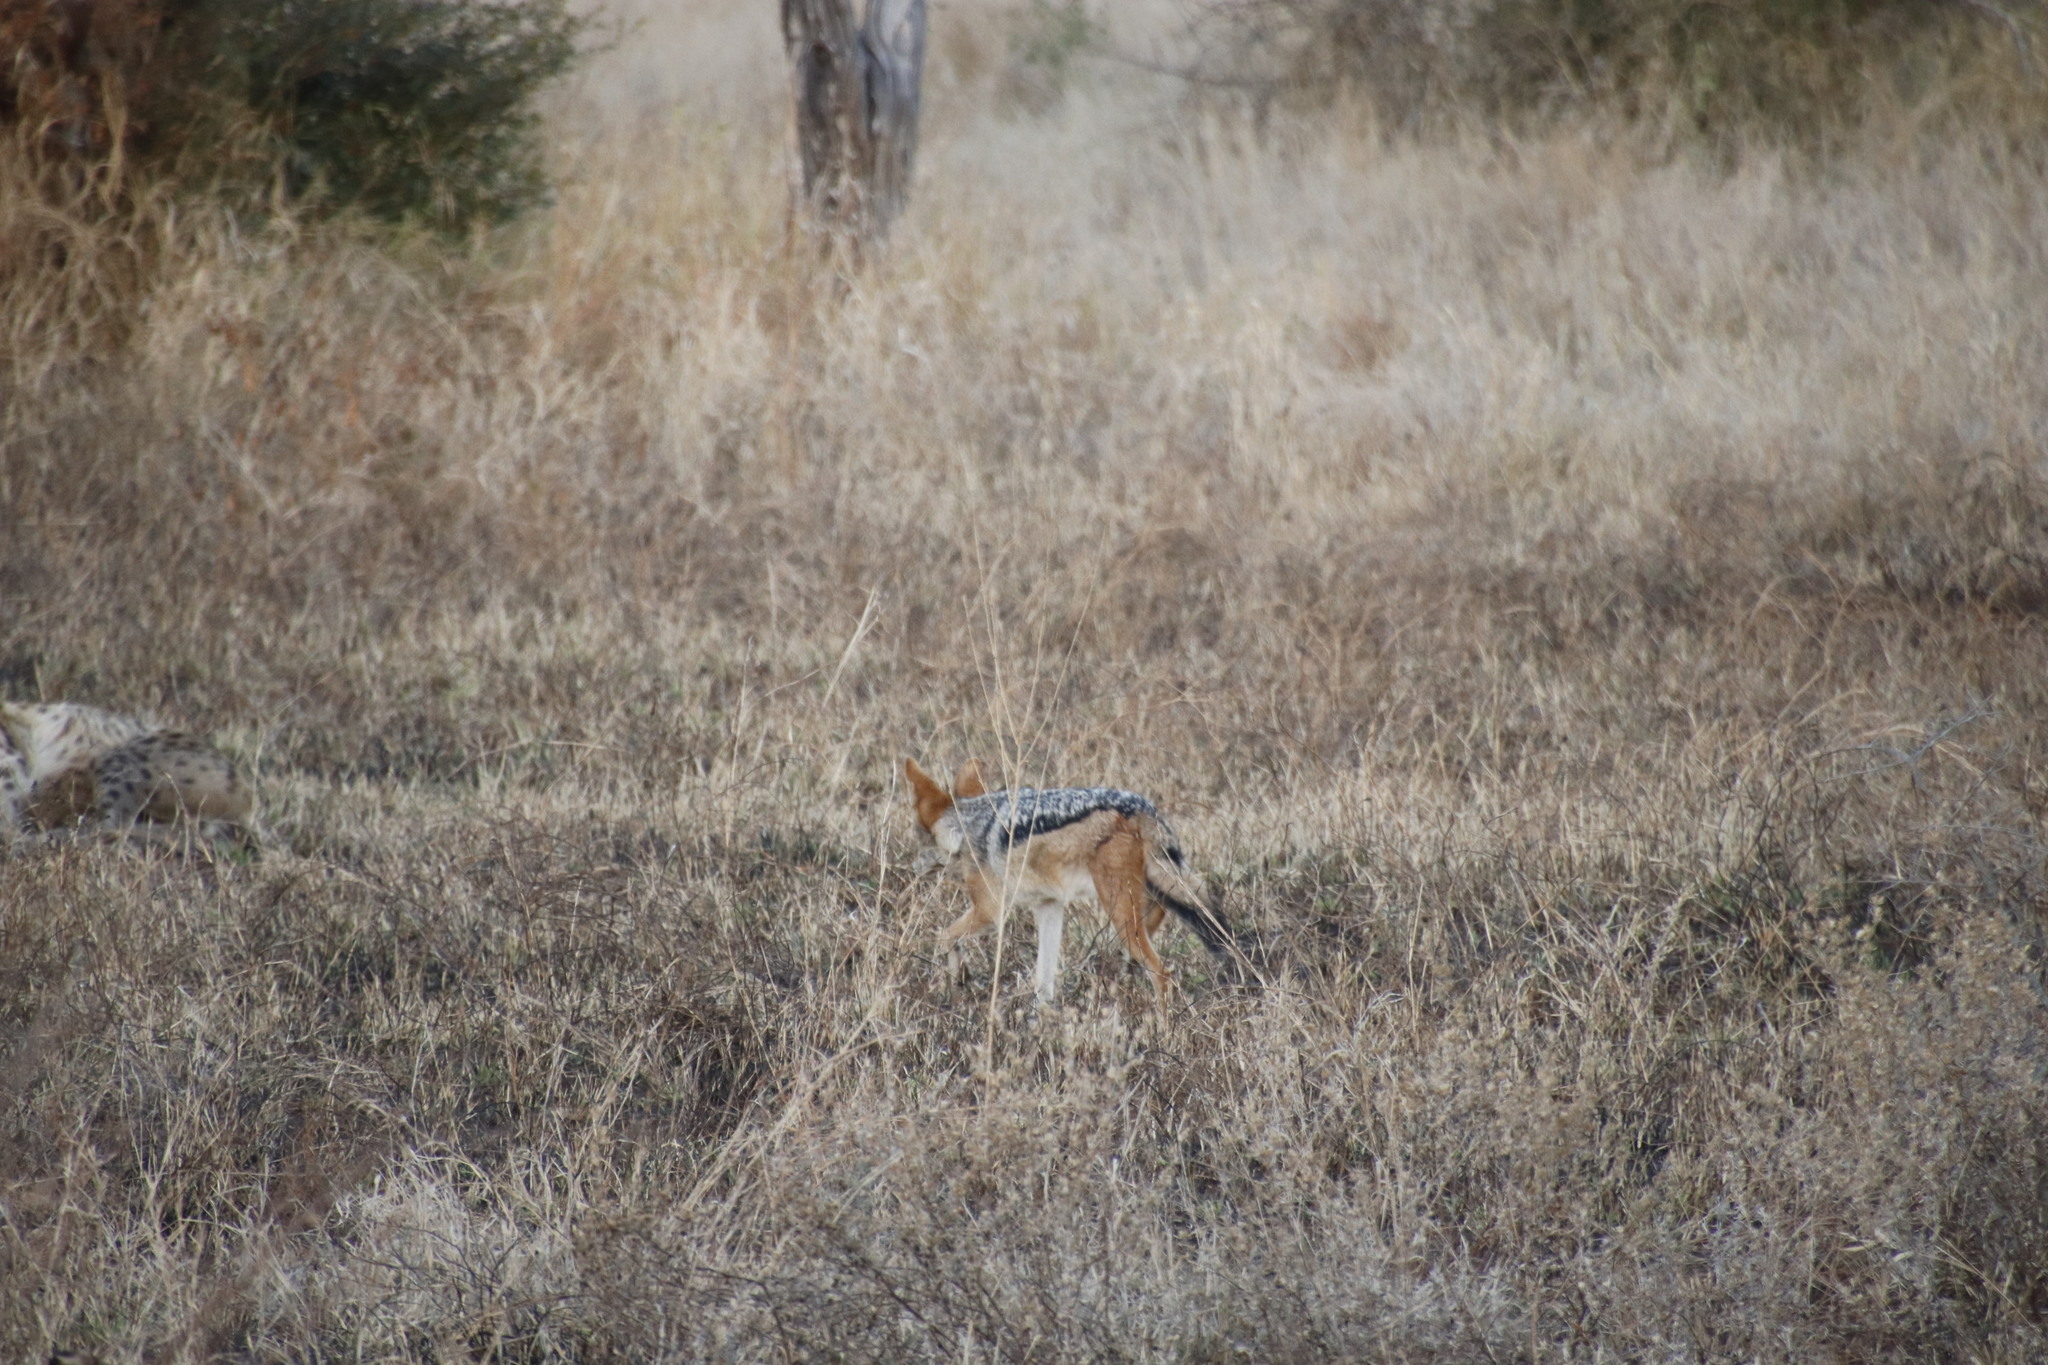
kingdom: Animalia
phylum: Chordata
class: Mammalia
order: Carnivora
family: Canidae
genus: Lupulella
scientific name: Lupulella
